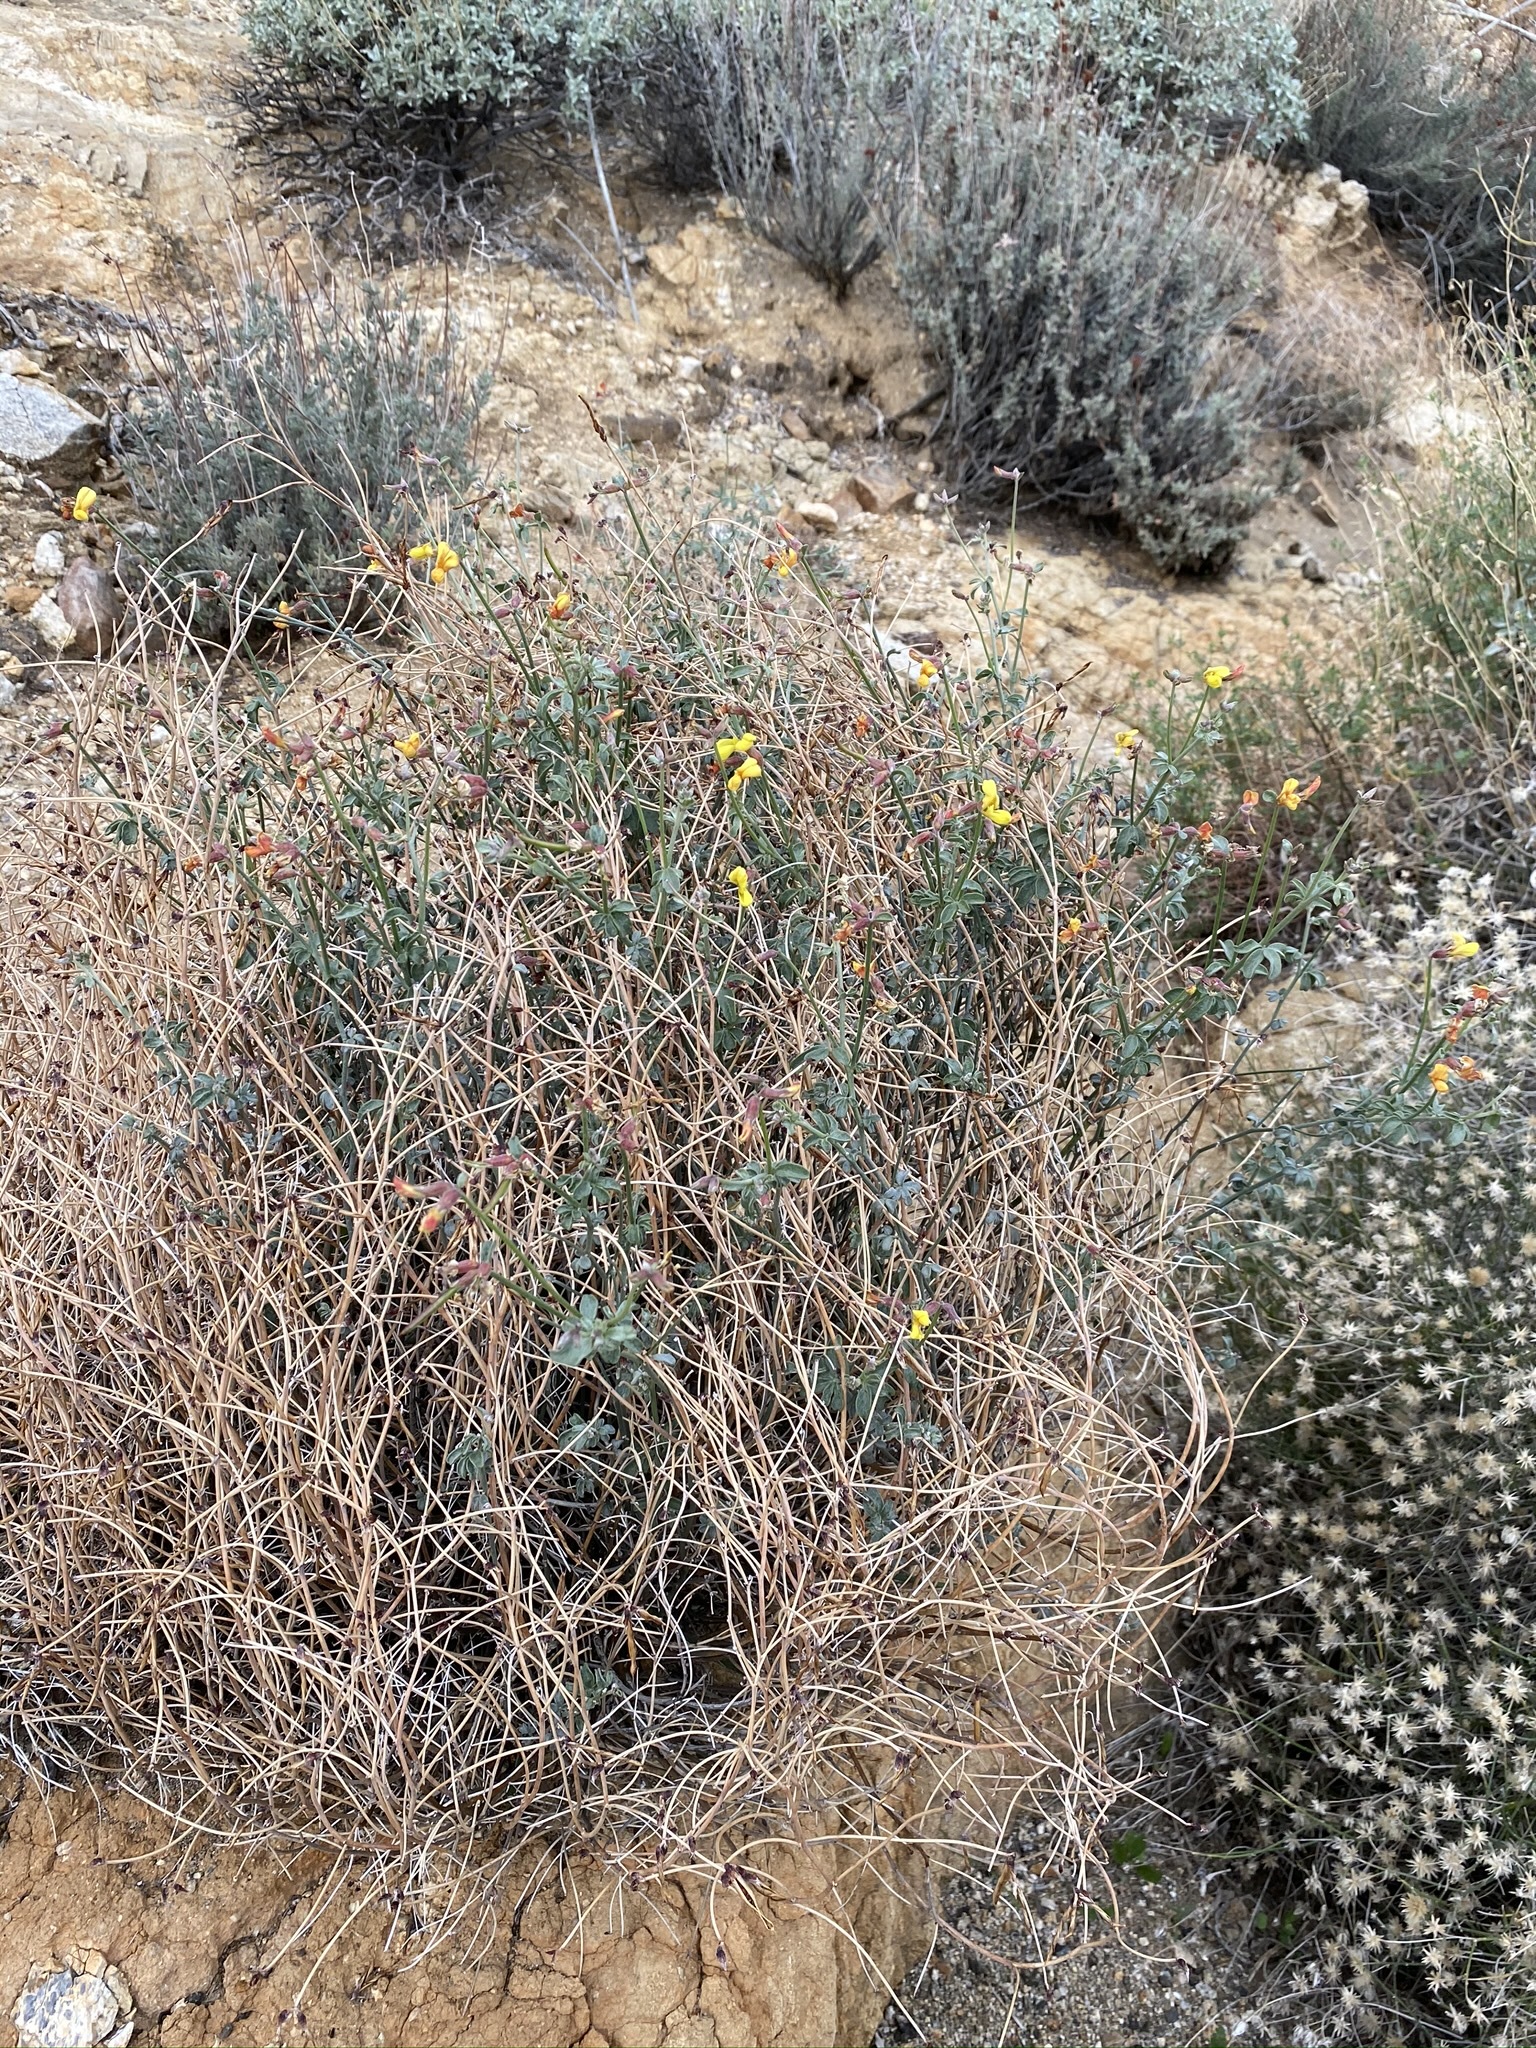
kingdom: Plantae
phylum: Tracheophyta
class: Magnoliopsida
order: Fabales
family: Fabaceae
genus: Acmispon
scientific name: Acmispon rigidus
